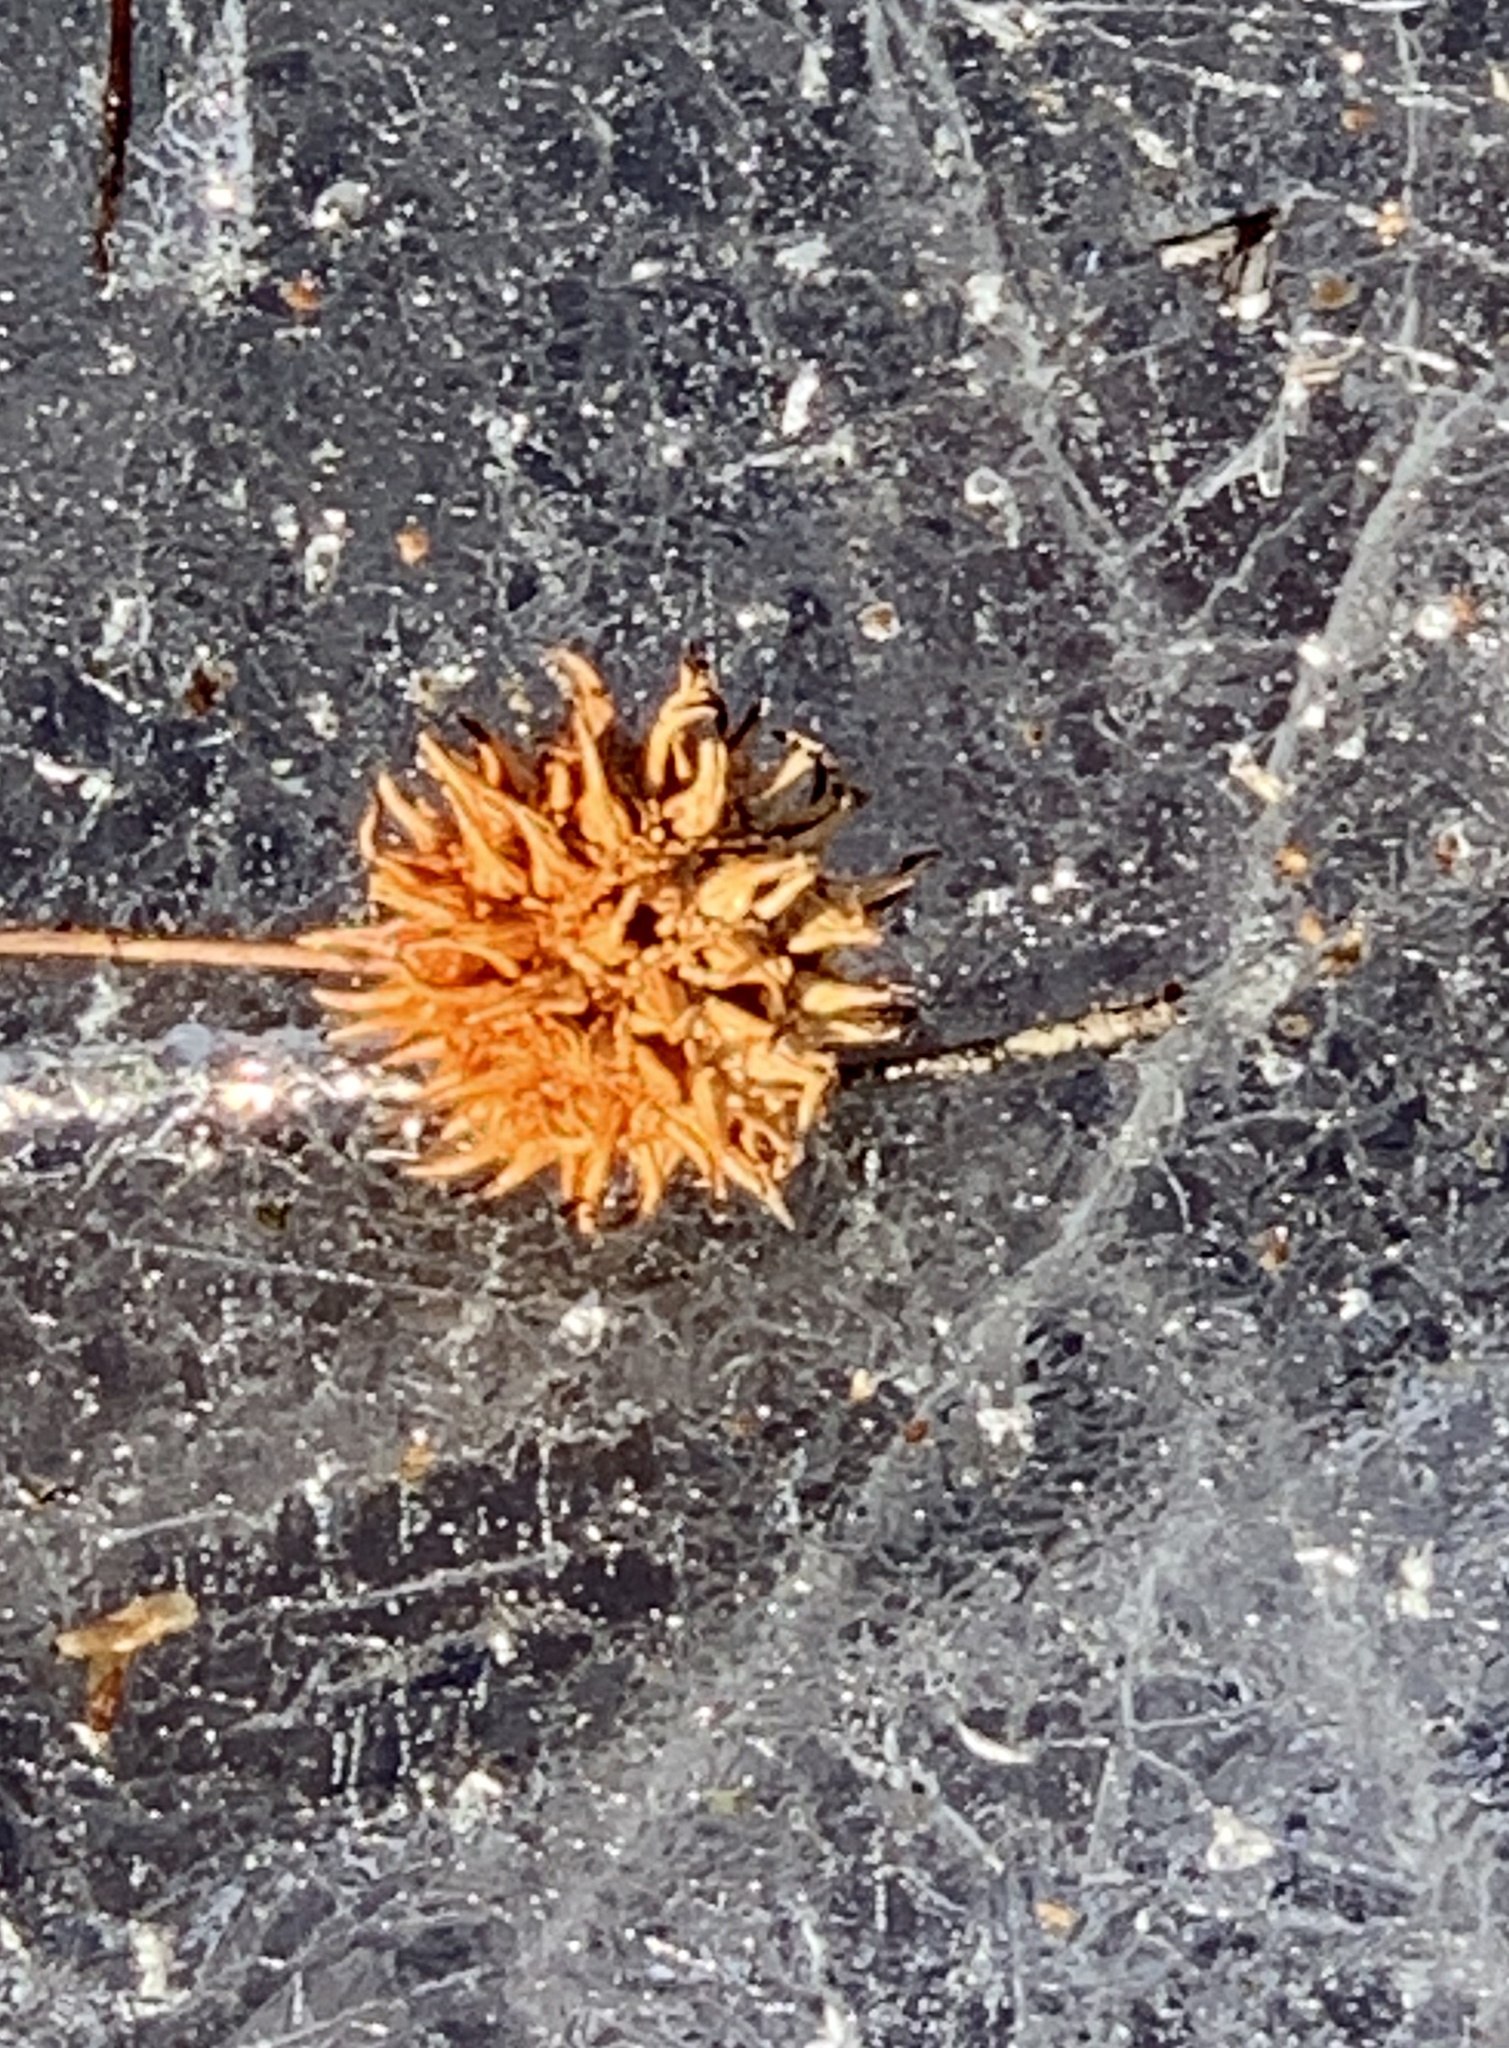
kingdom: Plantae
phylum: Tracheophyta
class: Magnoliopsida
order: Saxifragales
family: Altingiaceae
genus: Liquidambar
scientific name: Liquidambar styraciflua
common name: Sweet gum
